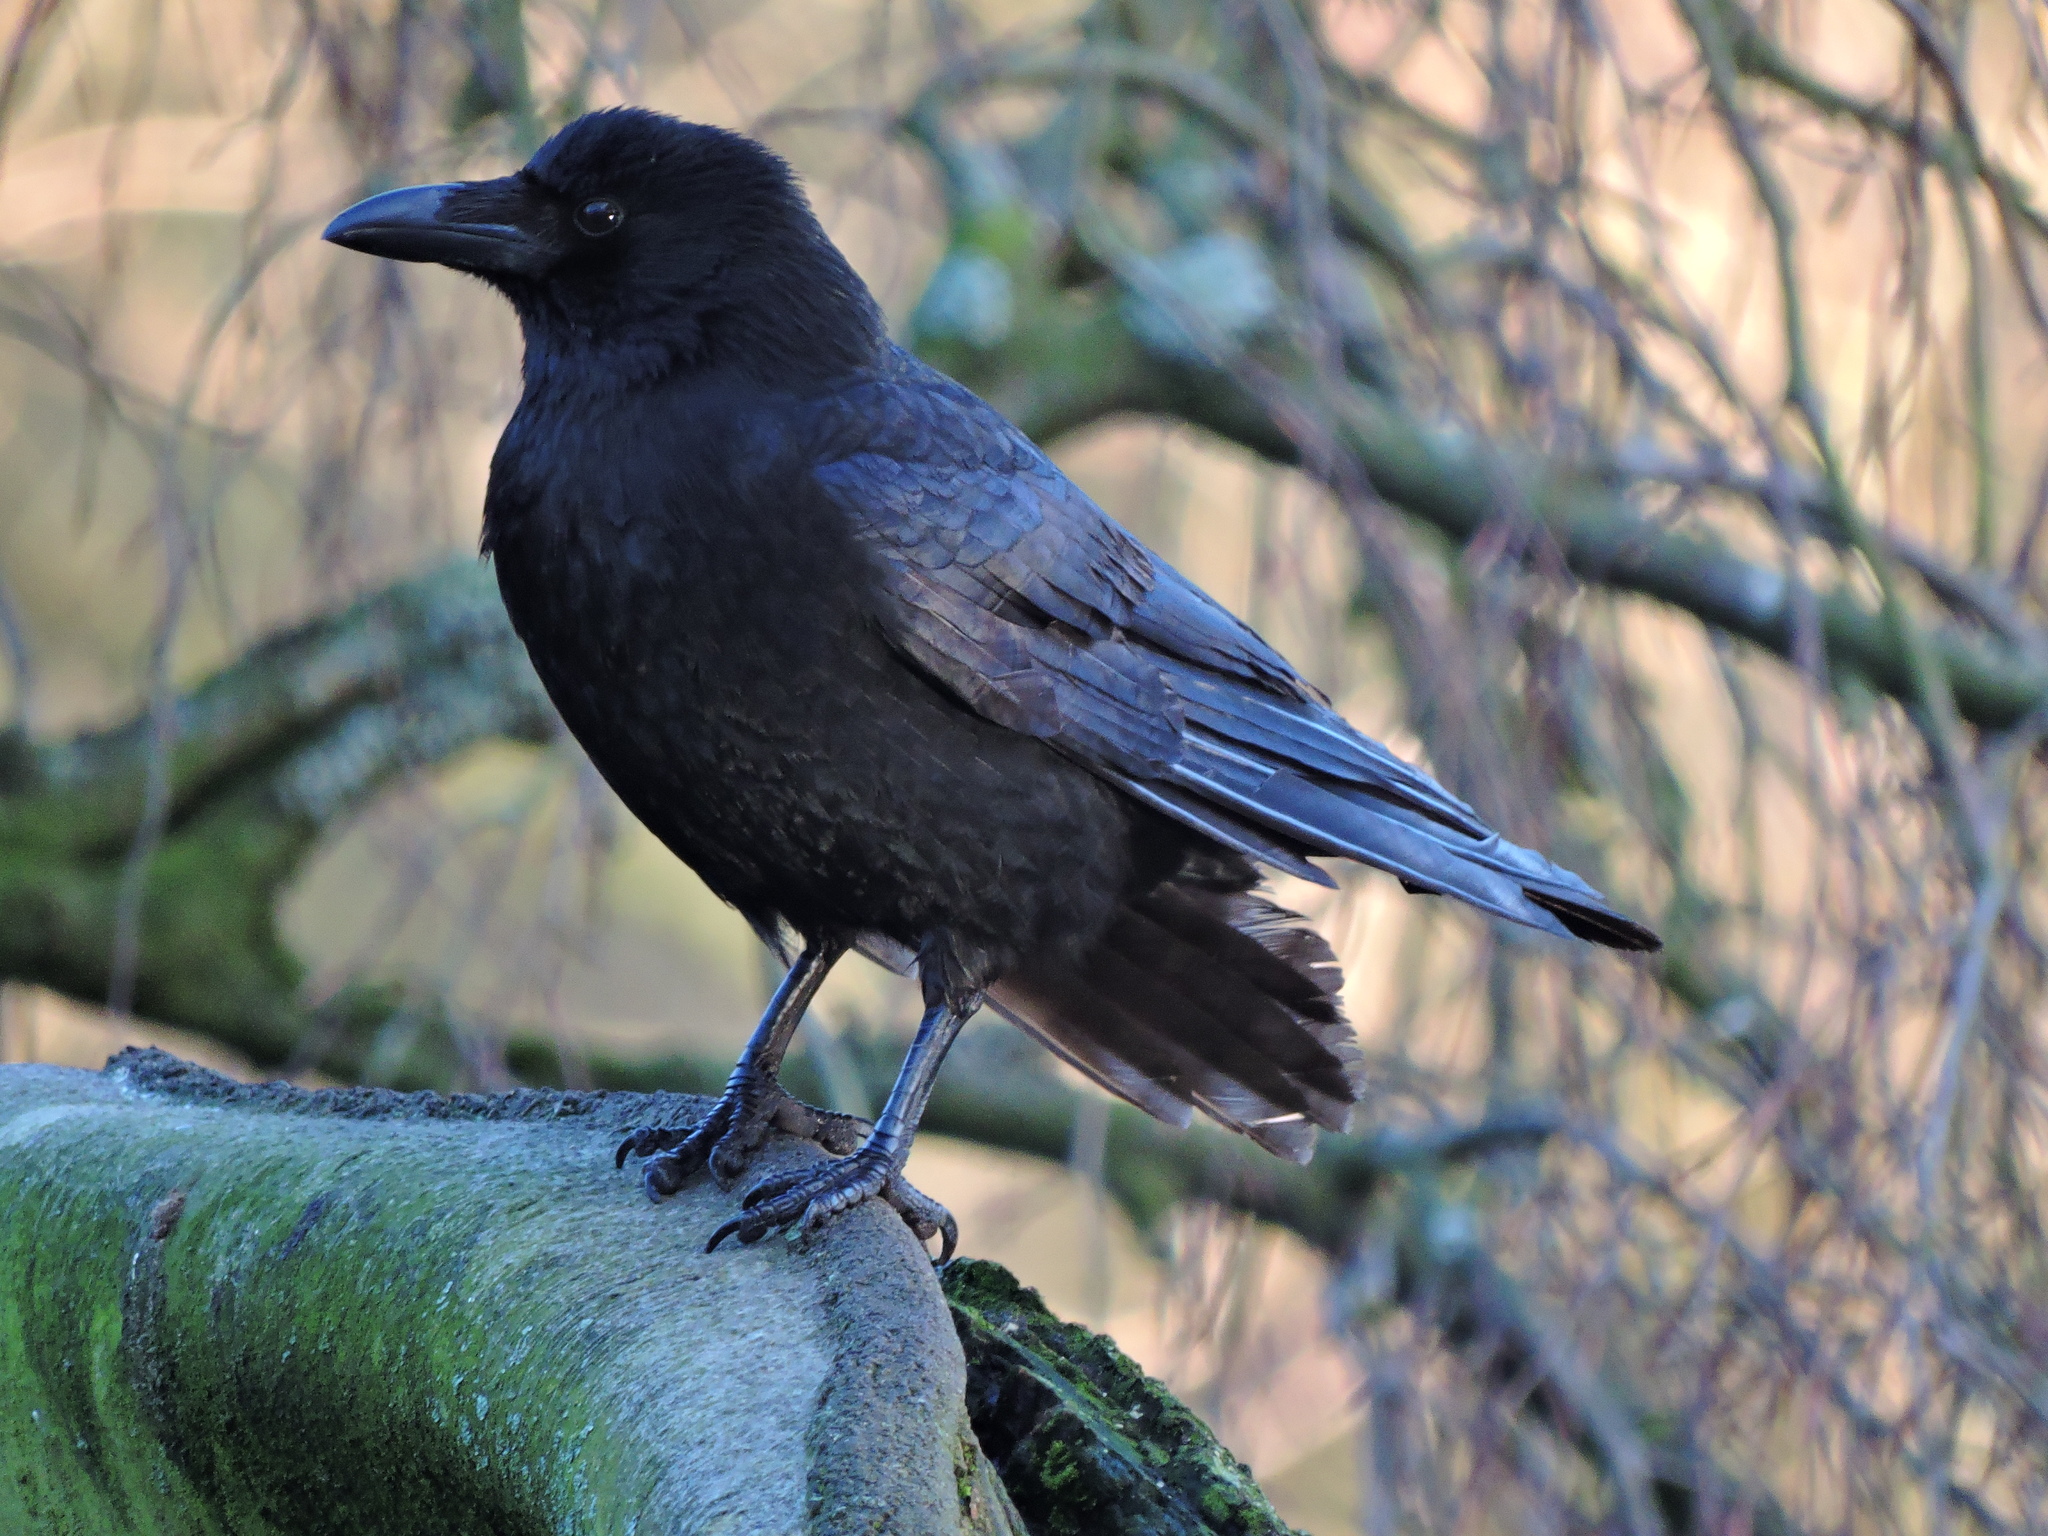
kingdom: Animalia
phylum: Chordata
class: Aves
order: Passeriformes
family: Corvidae
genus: Corvus
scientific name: Corvus corone
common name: Carrion crow
